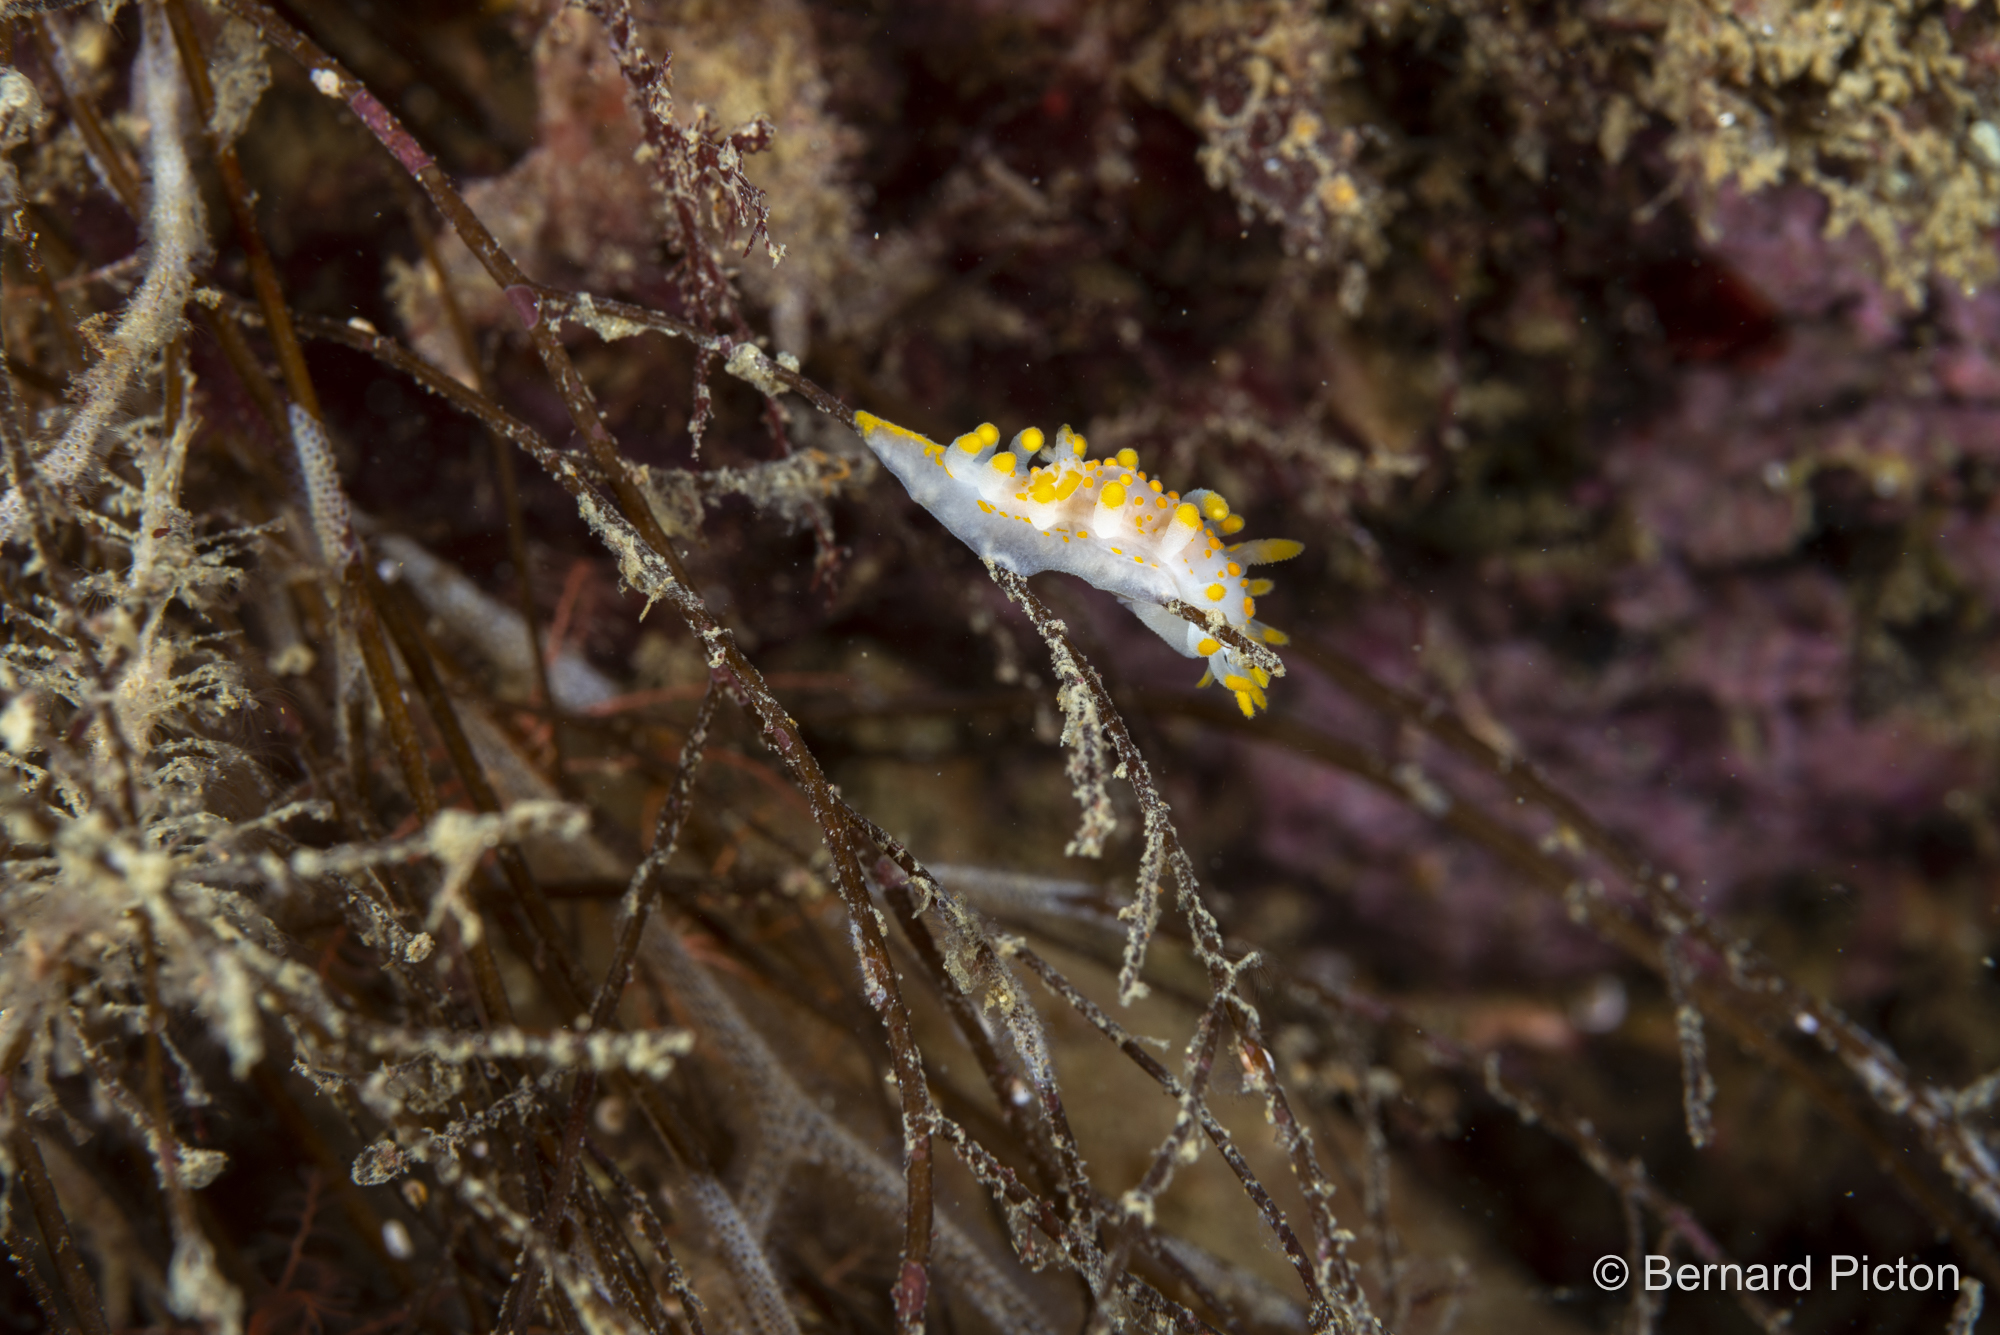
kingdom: Animalia
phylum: Mollusca
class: Gastropoda
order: Nudibranchia
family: Polyceridae
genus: Limacia
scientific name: Limacia clavigera
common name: Orange-clubbed sea slug
